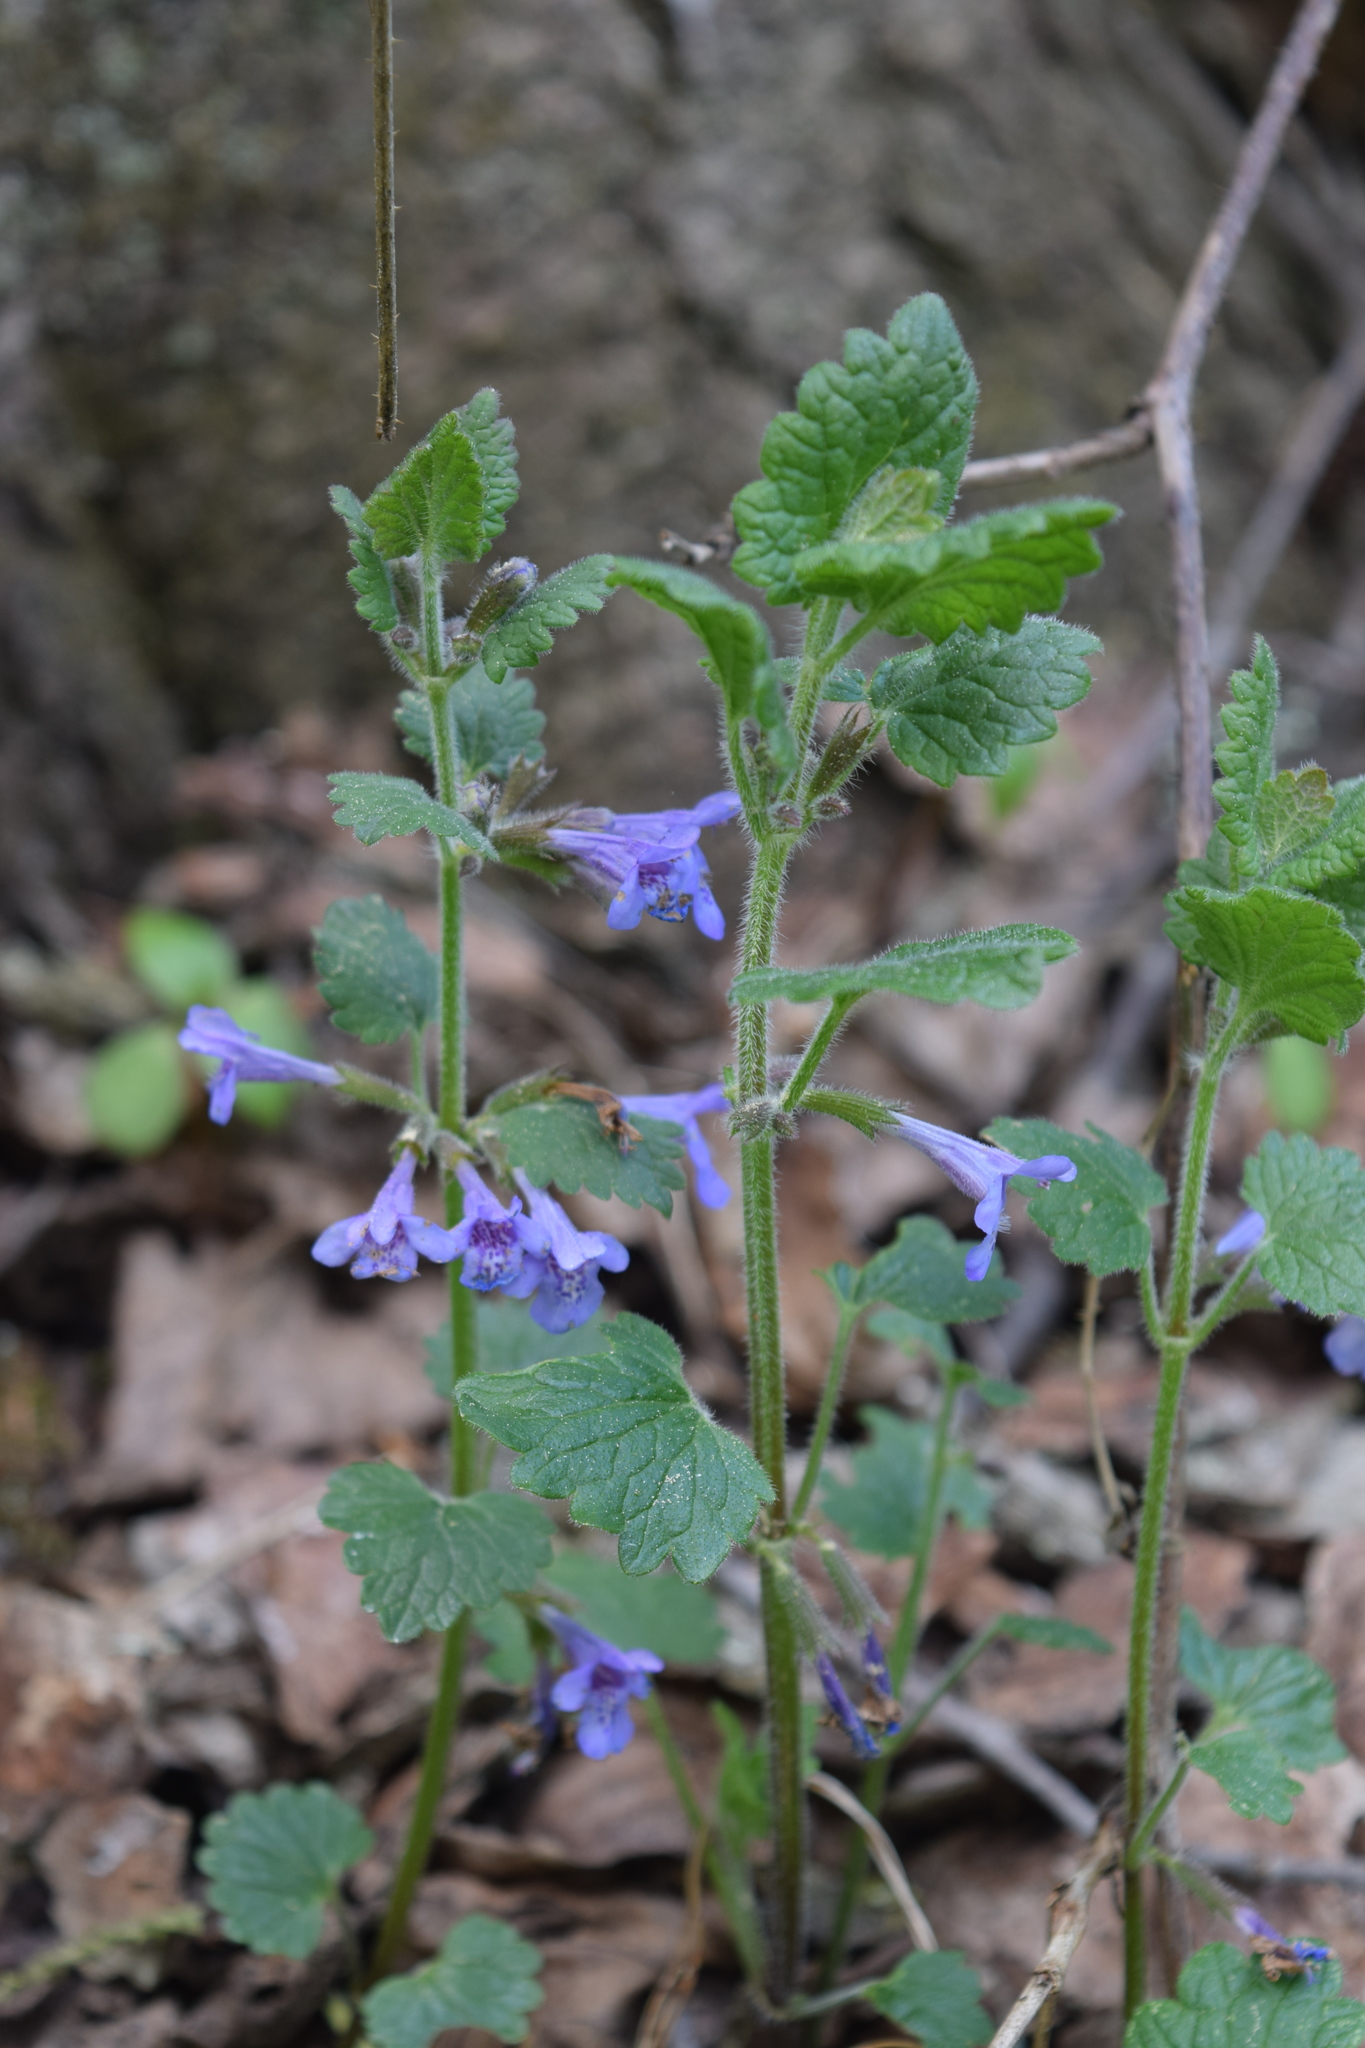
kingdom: Plantae
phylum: Tracheophyta
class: Magnoliopsida
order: Lamiales
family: Lamiaceae
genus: Glechoma
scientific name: Glechoma hederacea
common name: Ground ivy
